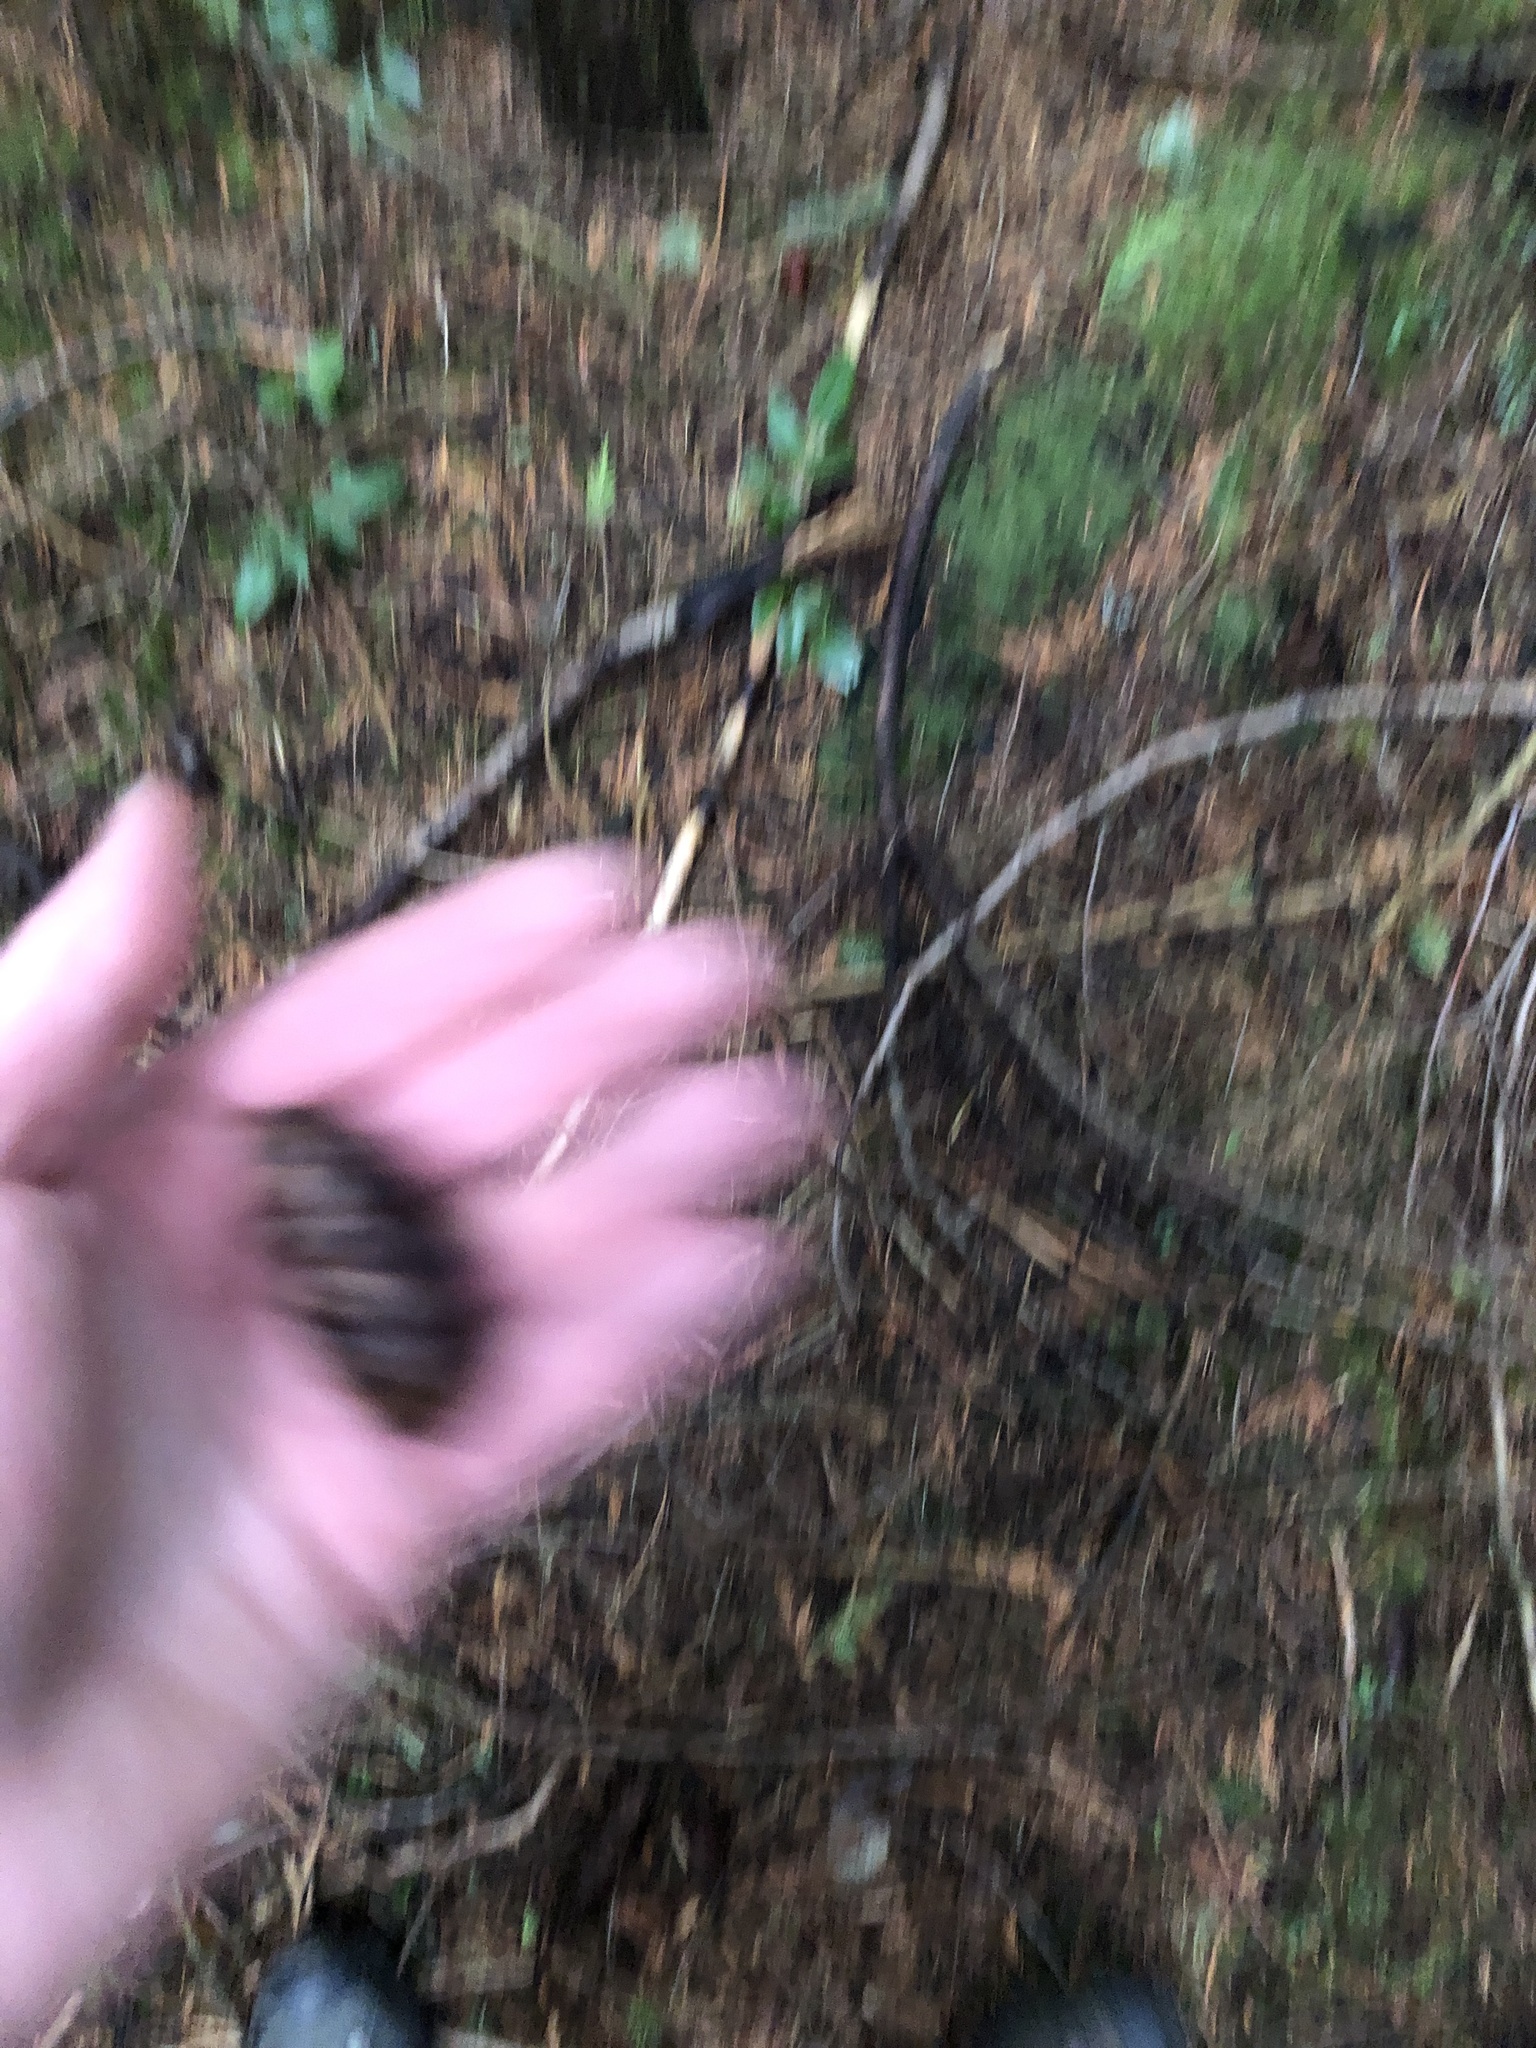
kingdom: Plantae
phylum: Tracheophyta
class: Pinopsida
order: Pinales
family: Pinaceae
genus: Pseudotsuga
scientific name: Pseudotsuga menziesii
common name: Douglas fir
